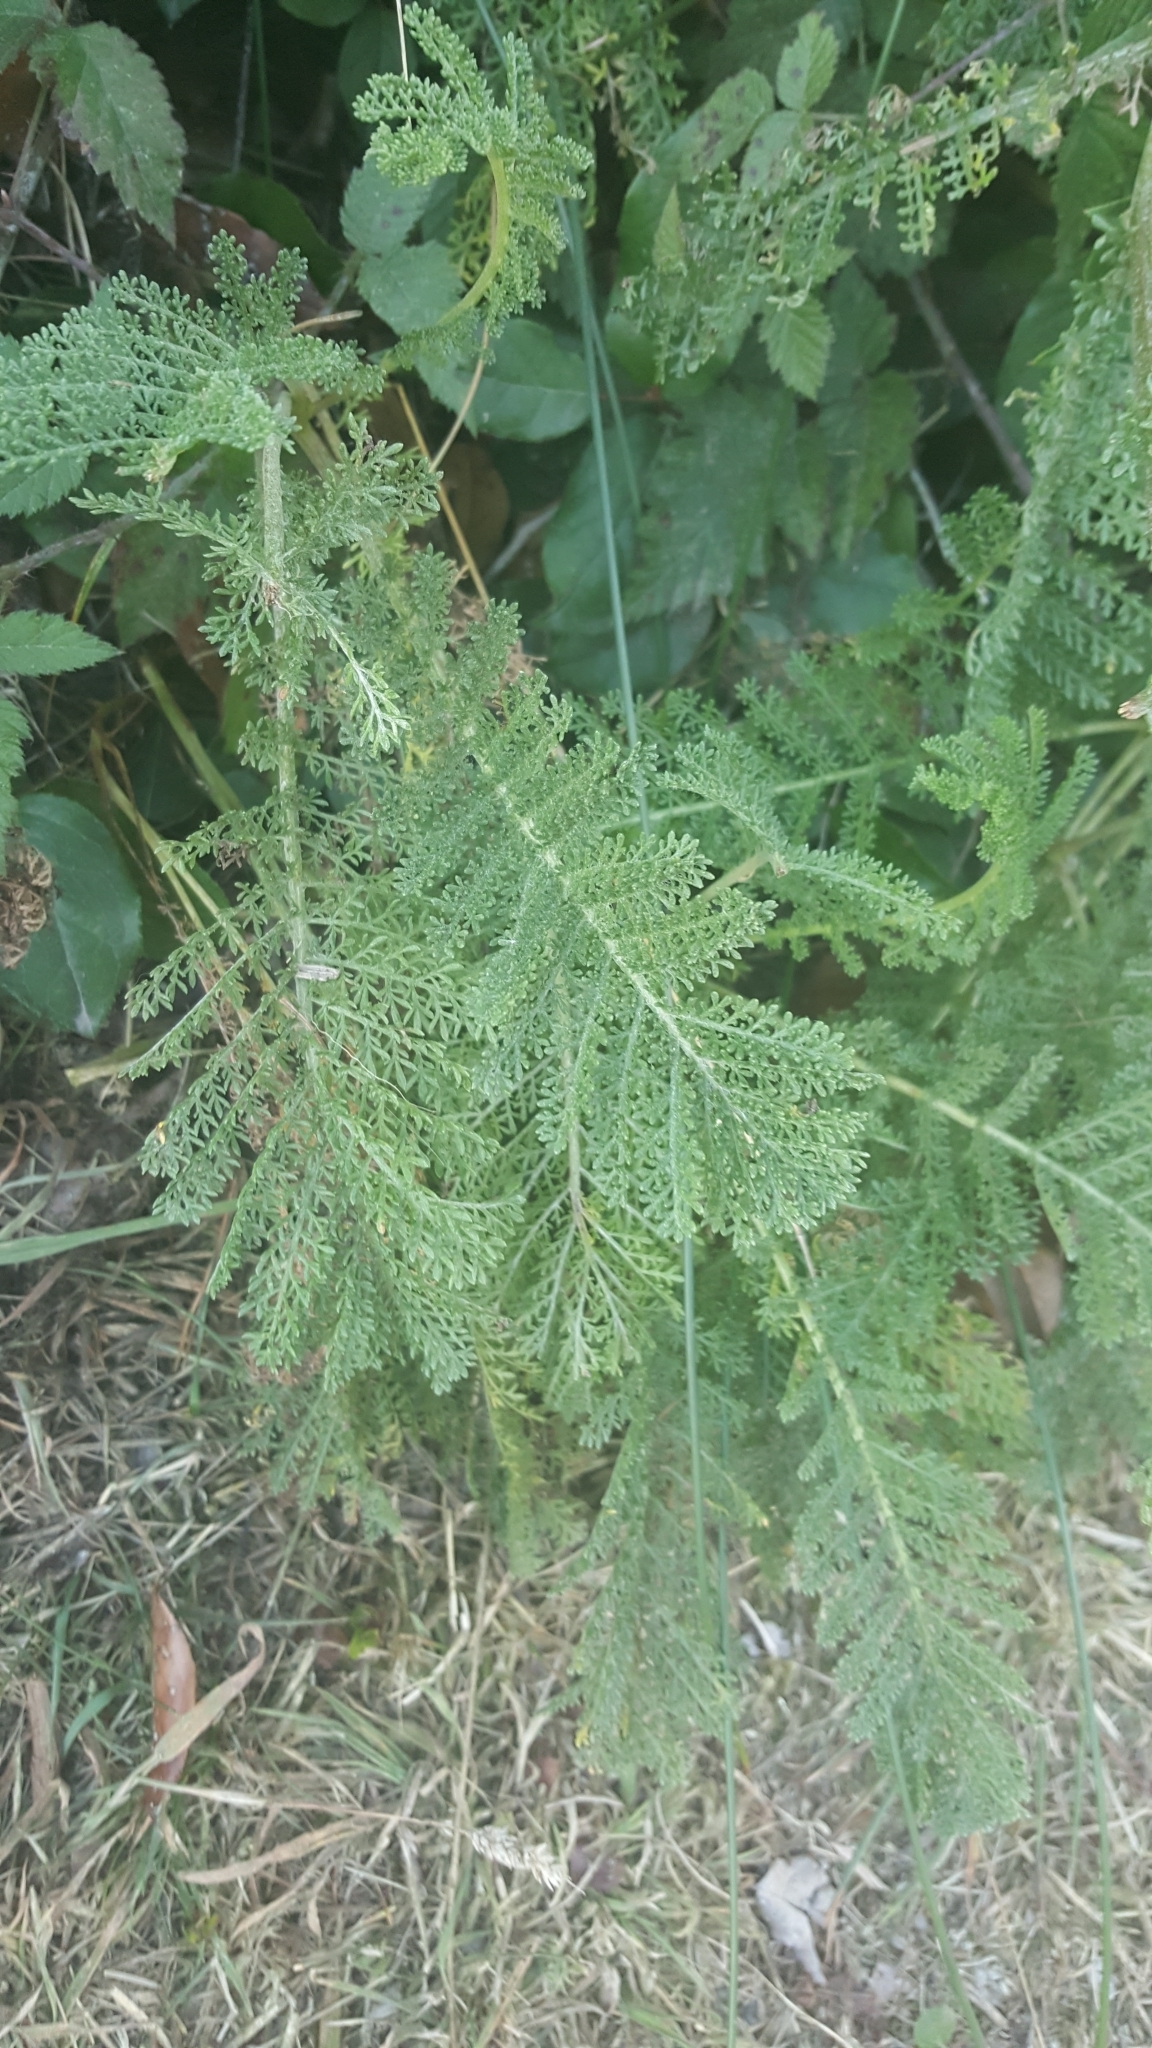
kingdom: Plantae
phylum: Tracheophyta
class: Magnoliopsida
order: Asterales
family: Asteraceae
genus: Tanacetum
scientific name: Tanacetum bipinnatum
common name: Dwarf tansy
